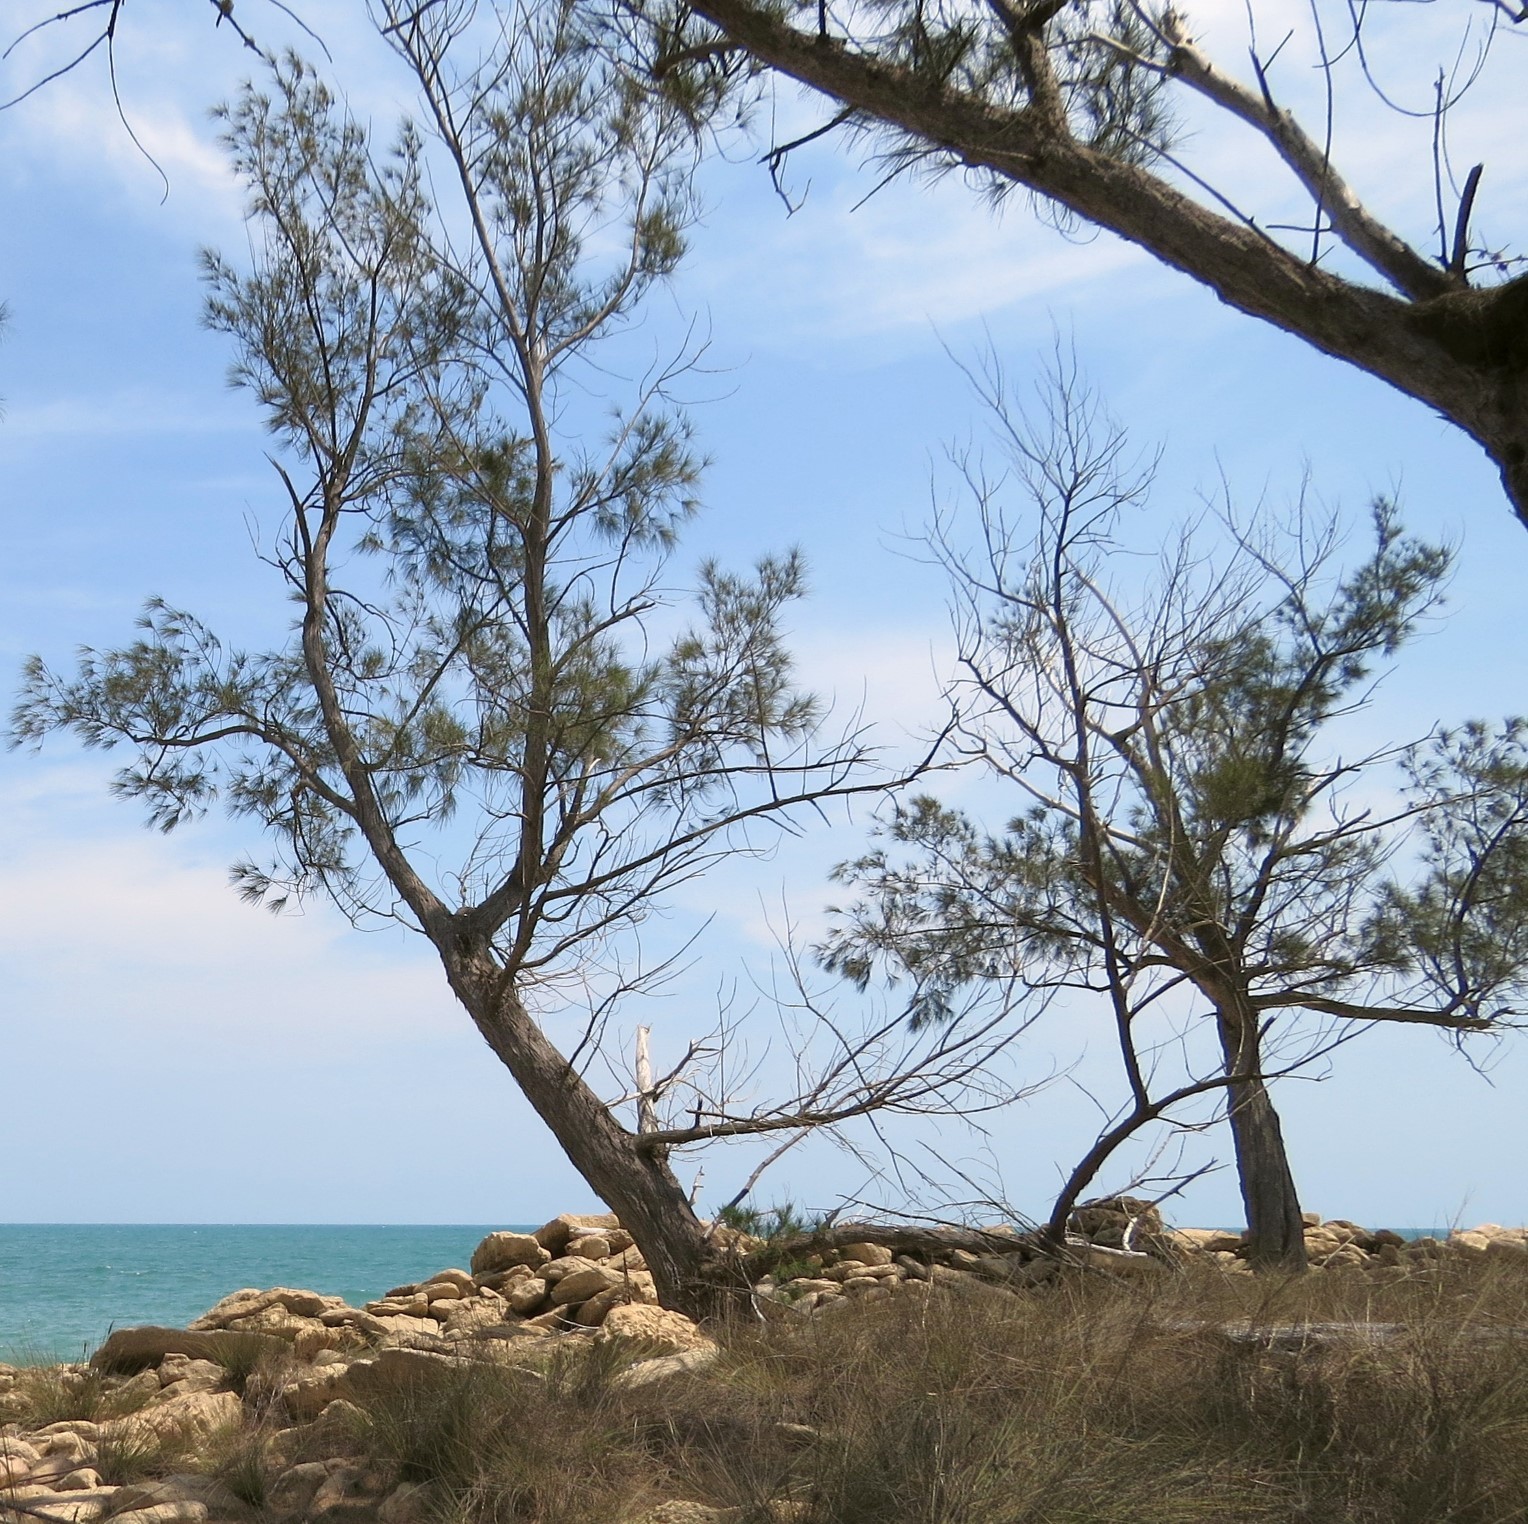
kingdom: Plantae
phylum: Tracheophyta
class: Magnoliopsida
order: Fagales
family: Casuarinaceae
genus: Casuarina
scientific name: Casuarina equisetifolia
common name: Beach sheoak
